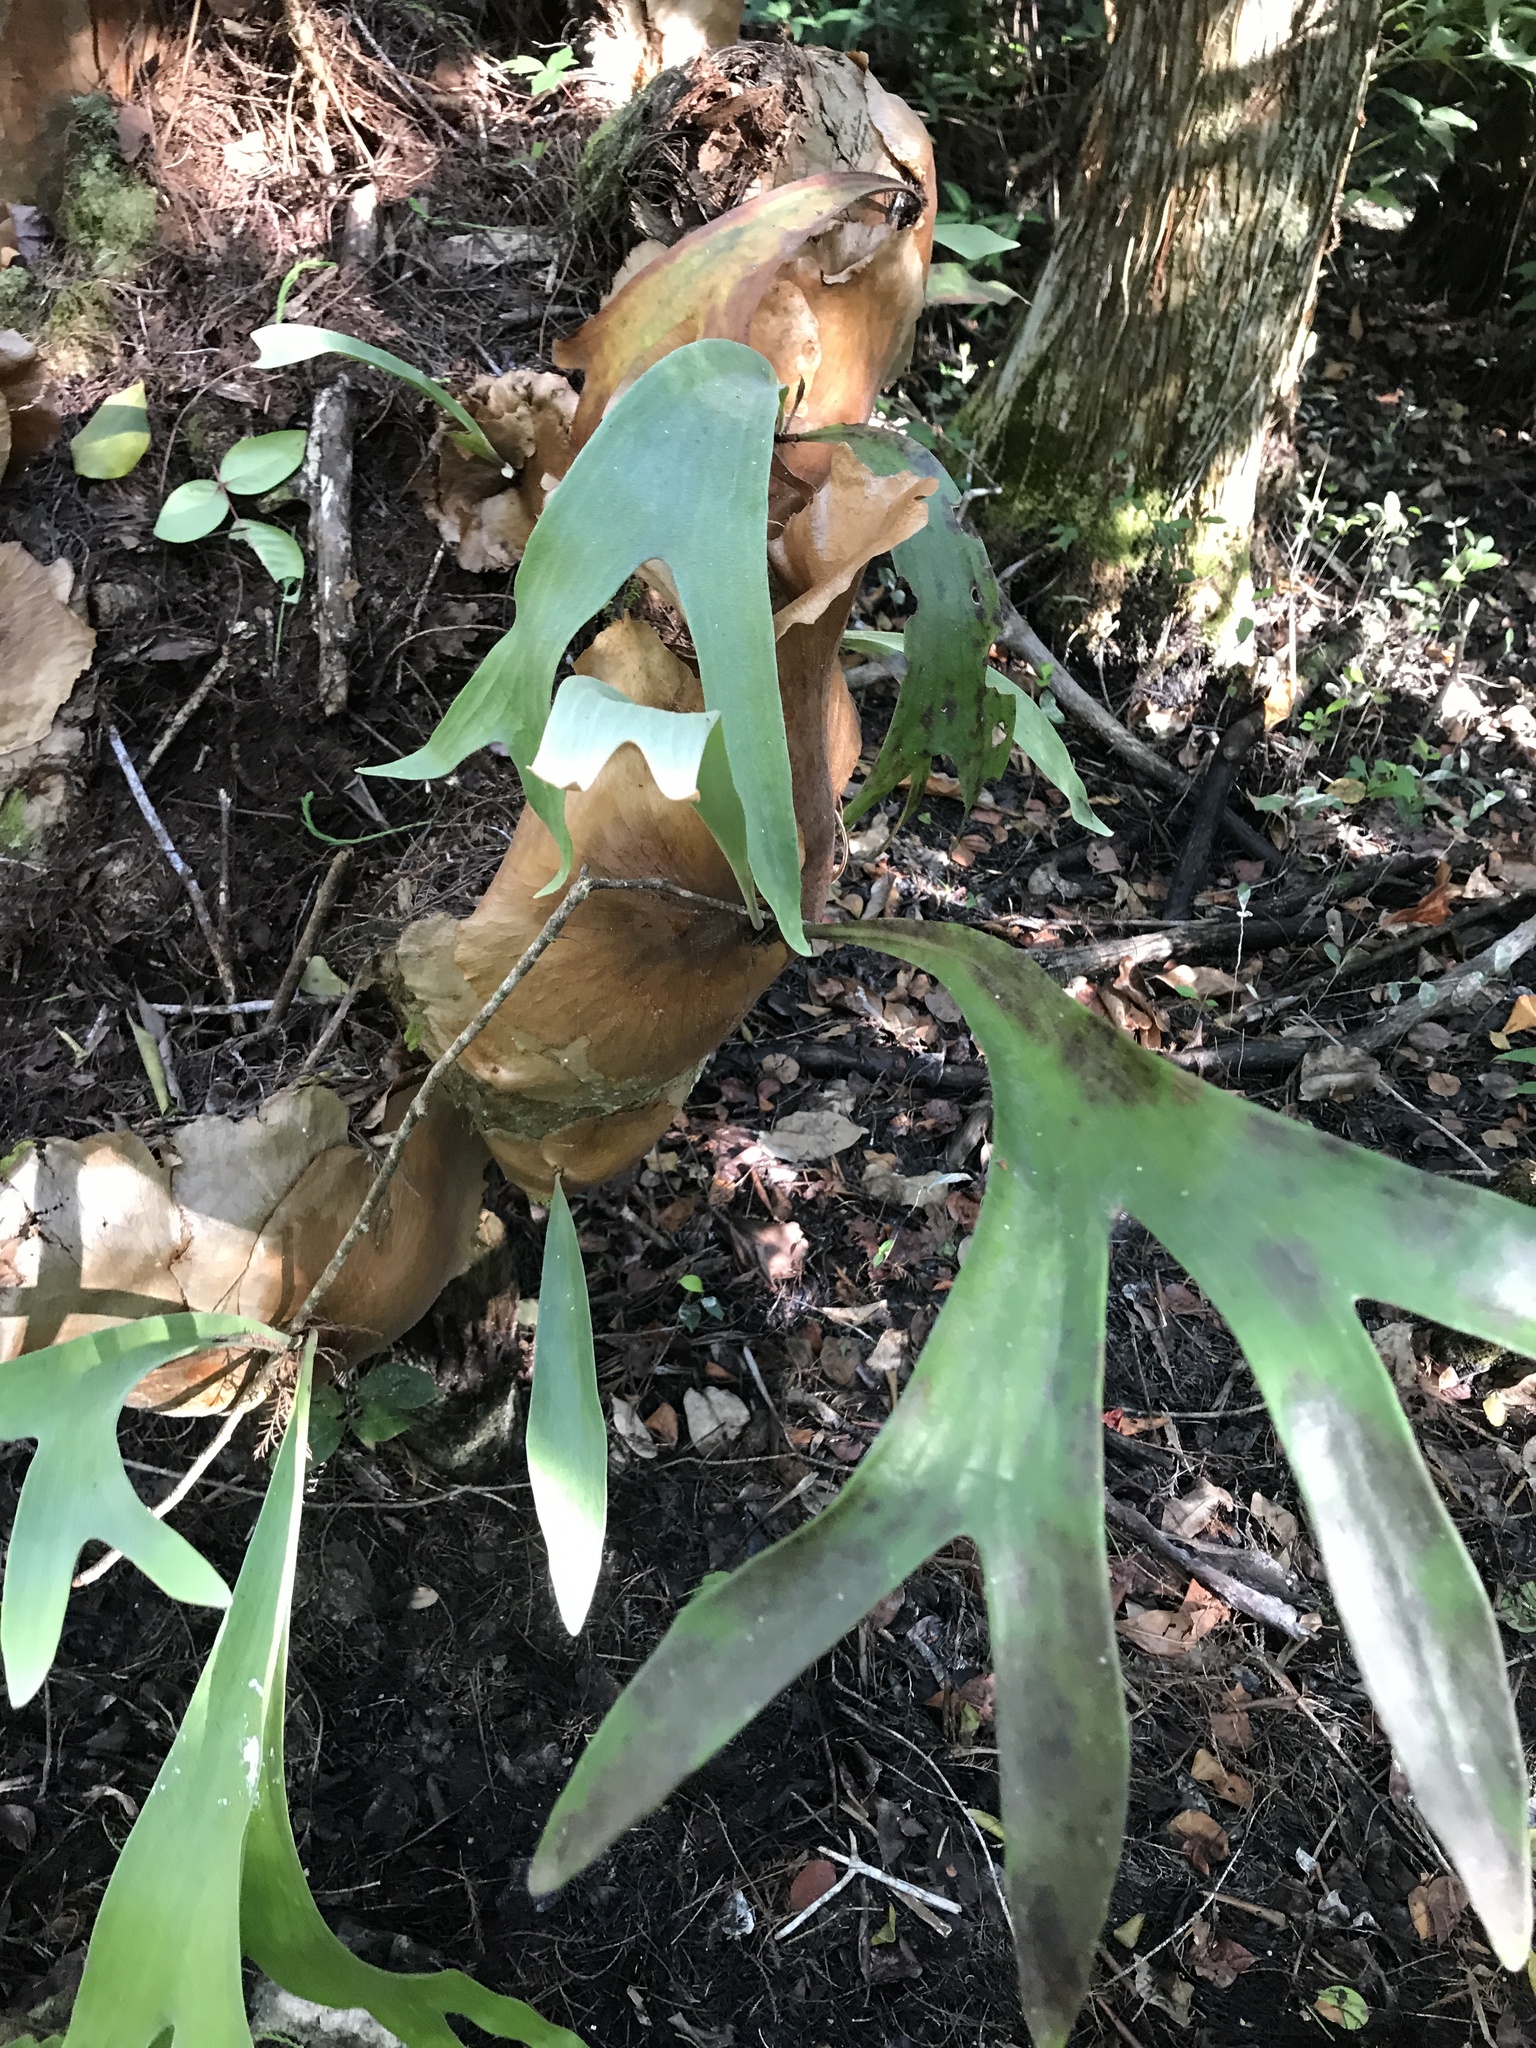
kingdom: Plantae
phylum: Tracheophyta
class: Polypodiopsida
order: Polypodiales
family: Polypodiaceae
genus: Platycerium
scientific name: Platycerium bifurcatum
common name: Elkhorn fern
